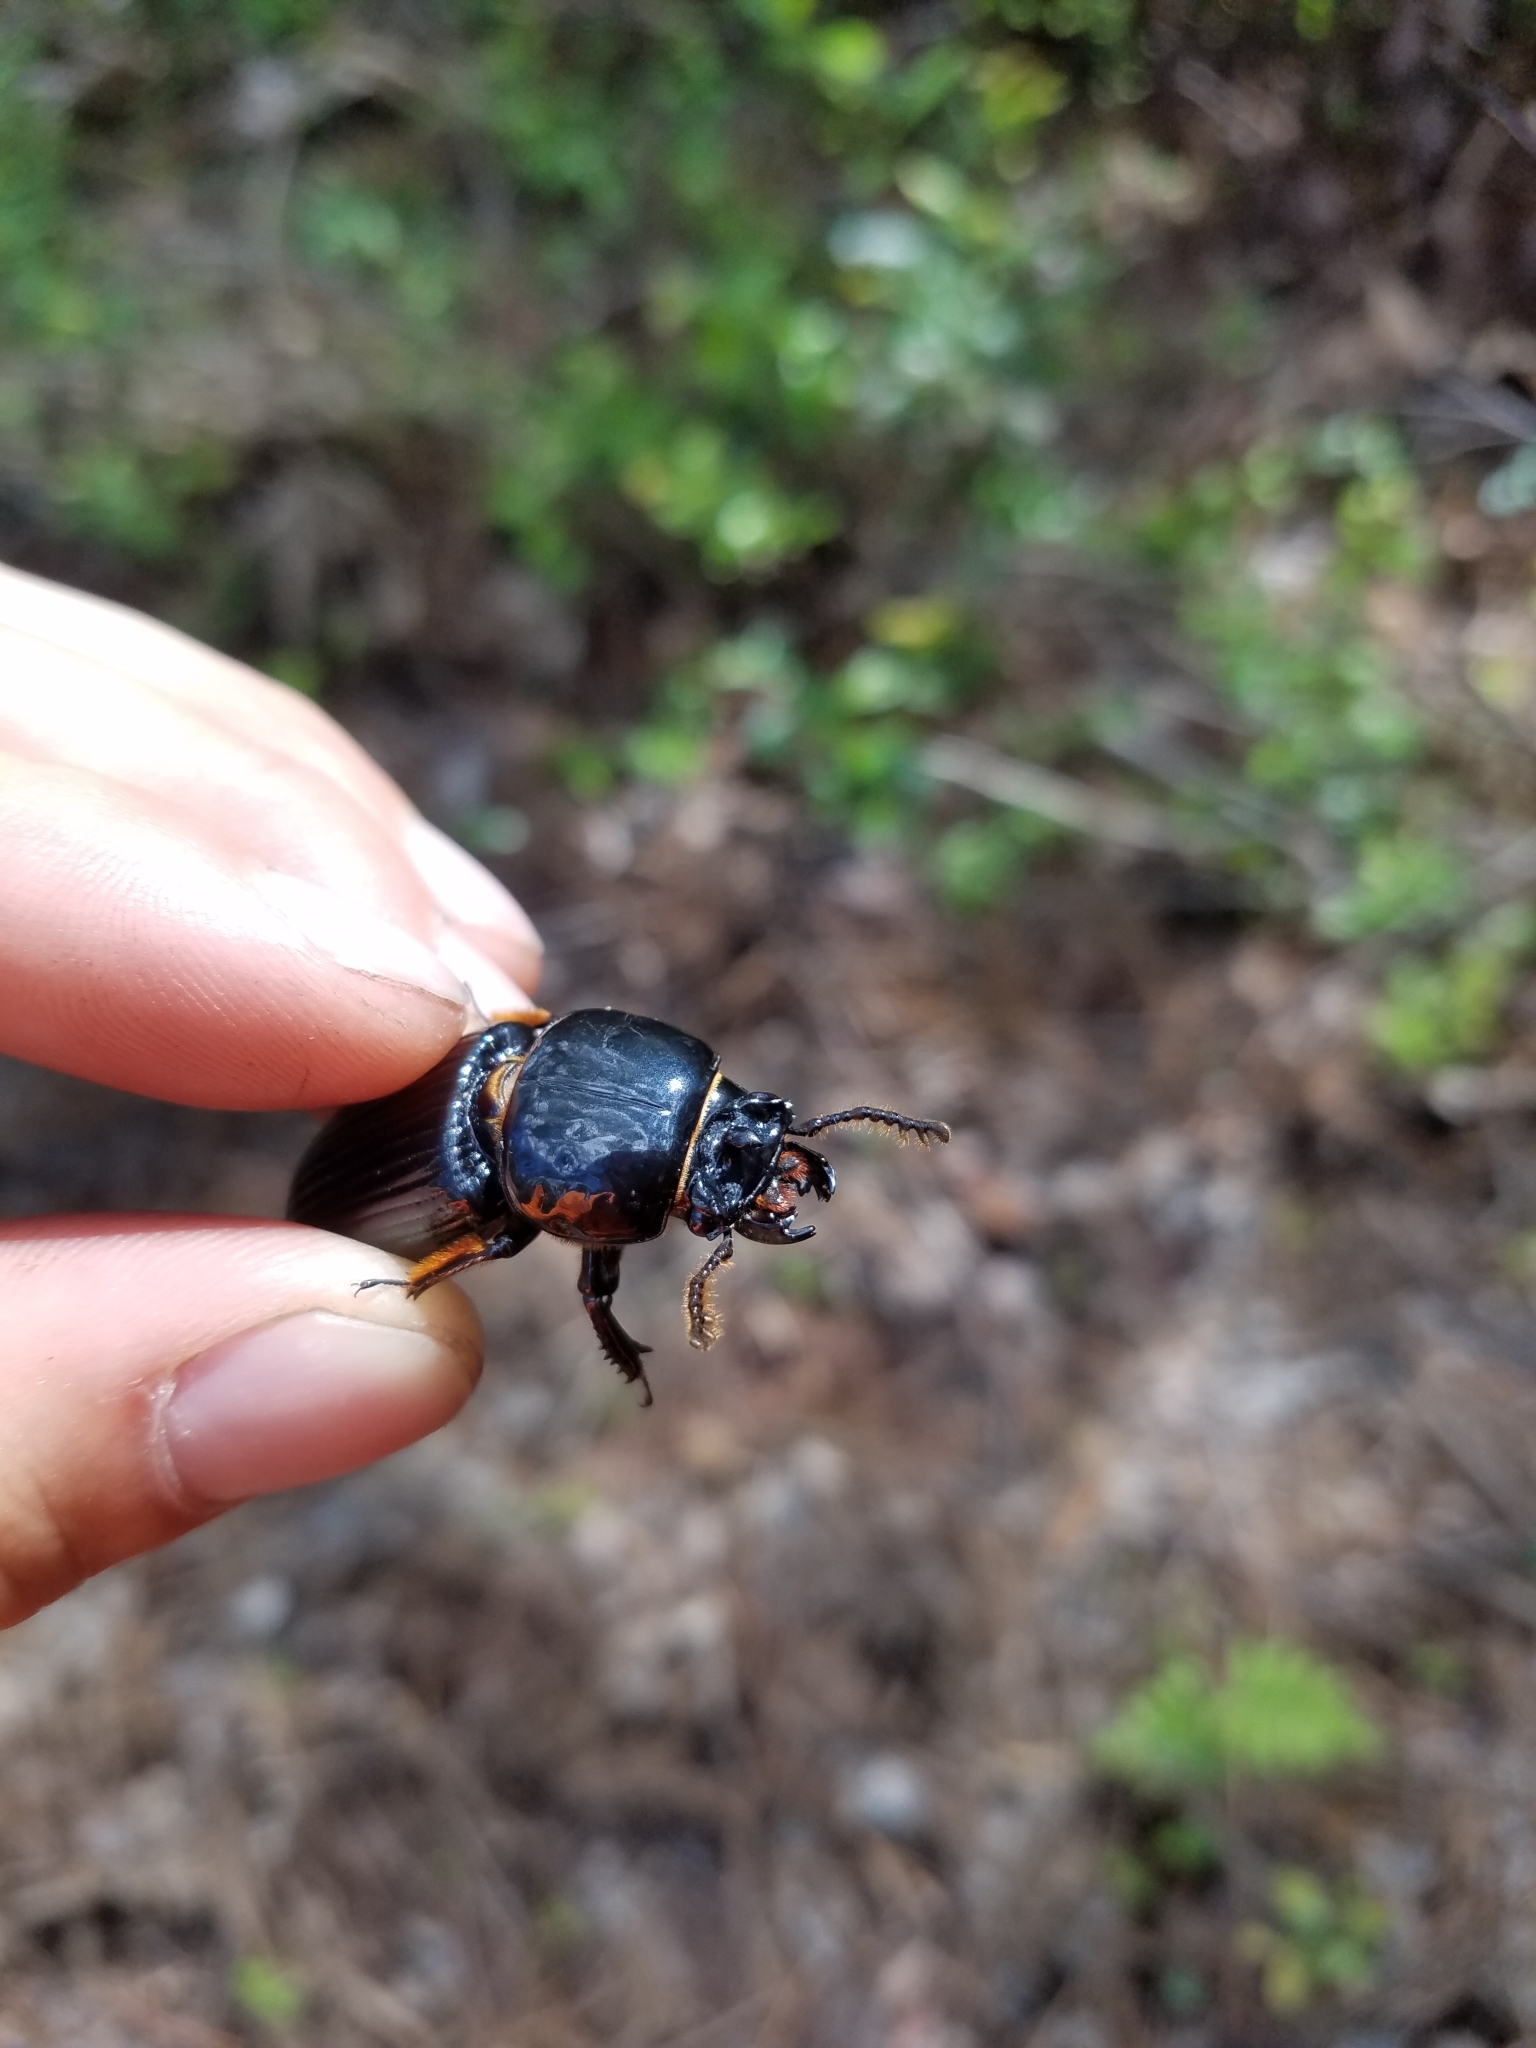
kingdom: Animalia
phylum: Arthropoda
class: Insecta
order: Coleoptera
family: Passalidae
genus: Odontotaenius
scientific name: Odontotaenius disjunctus
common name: Patent leather beetle
